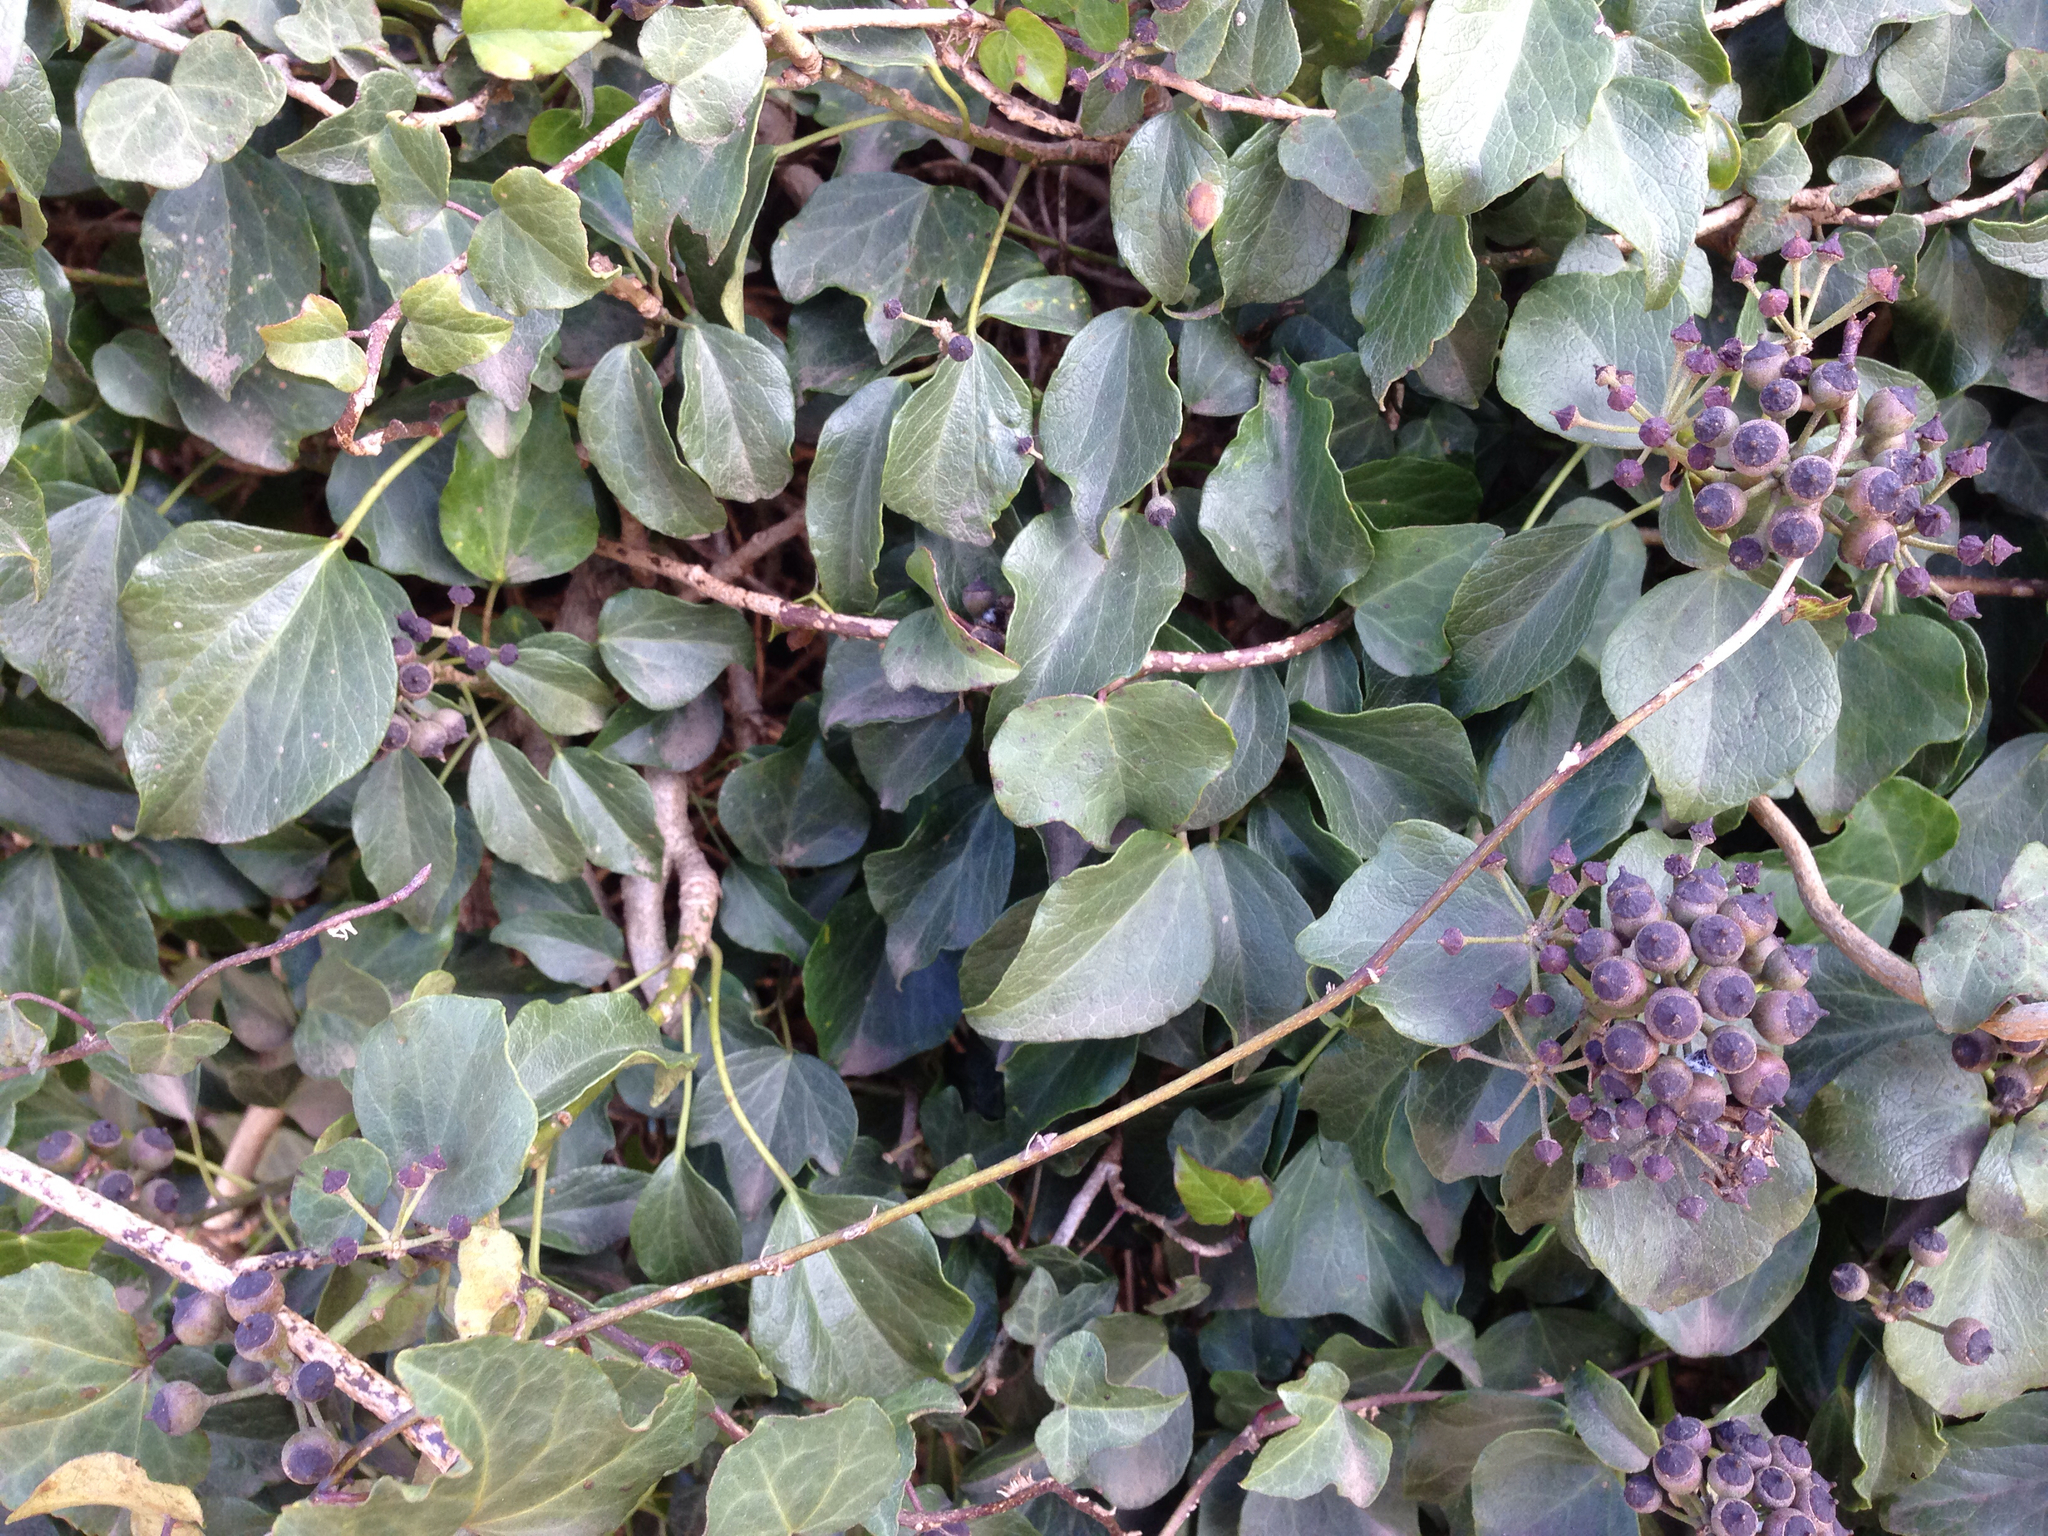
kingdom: Plantae
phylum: Tracheophyta
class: Magnoliopsida
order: Apiales
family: Araliaceae
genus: Hedera
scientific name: Hedera rhombea
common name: Japanese ivy
